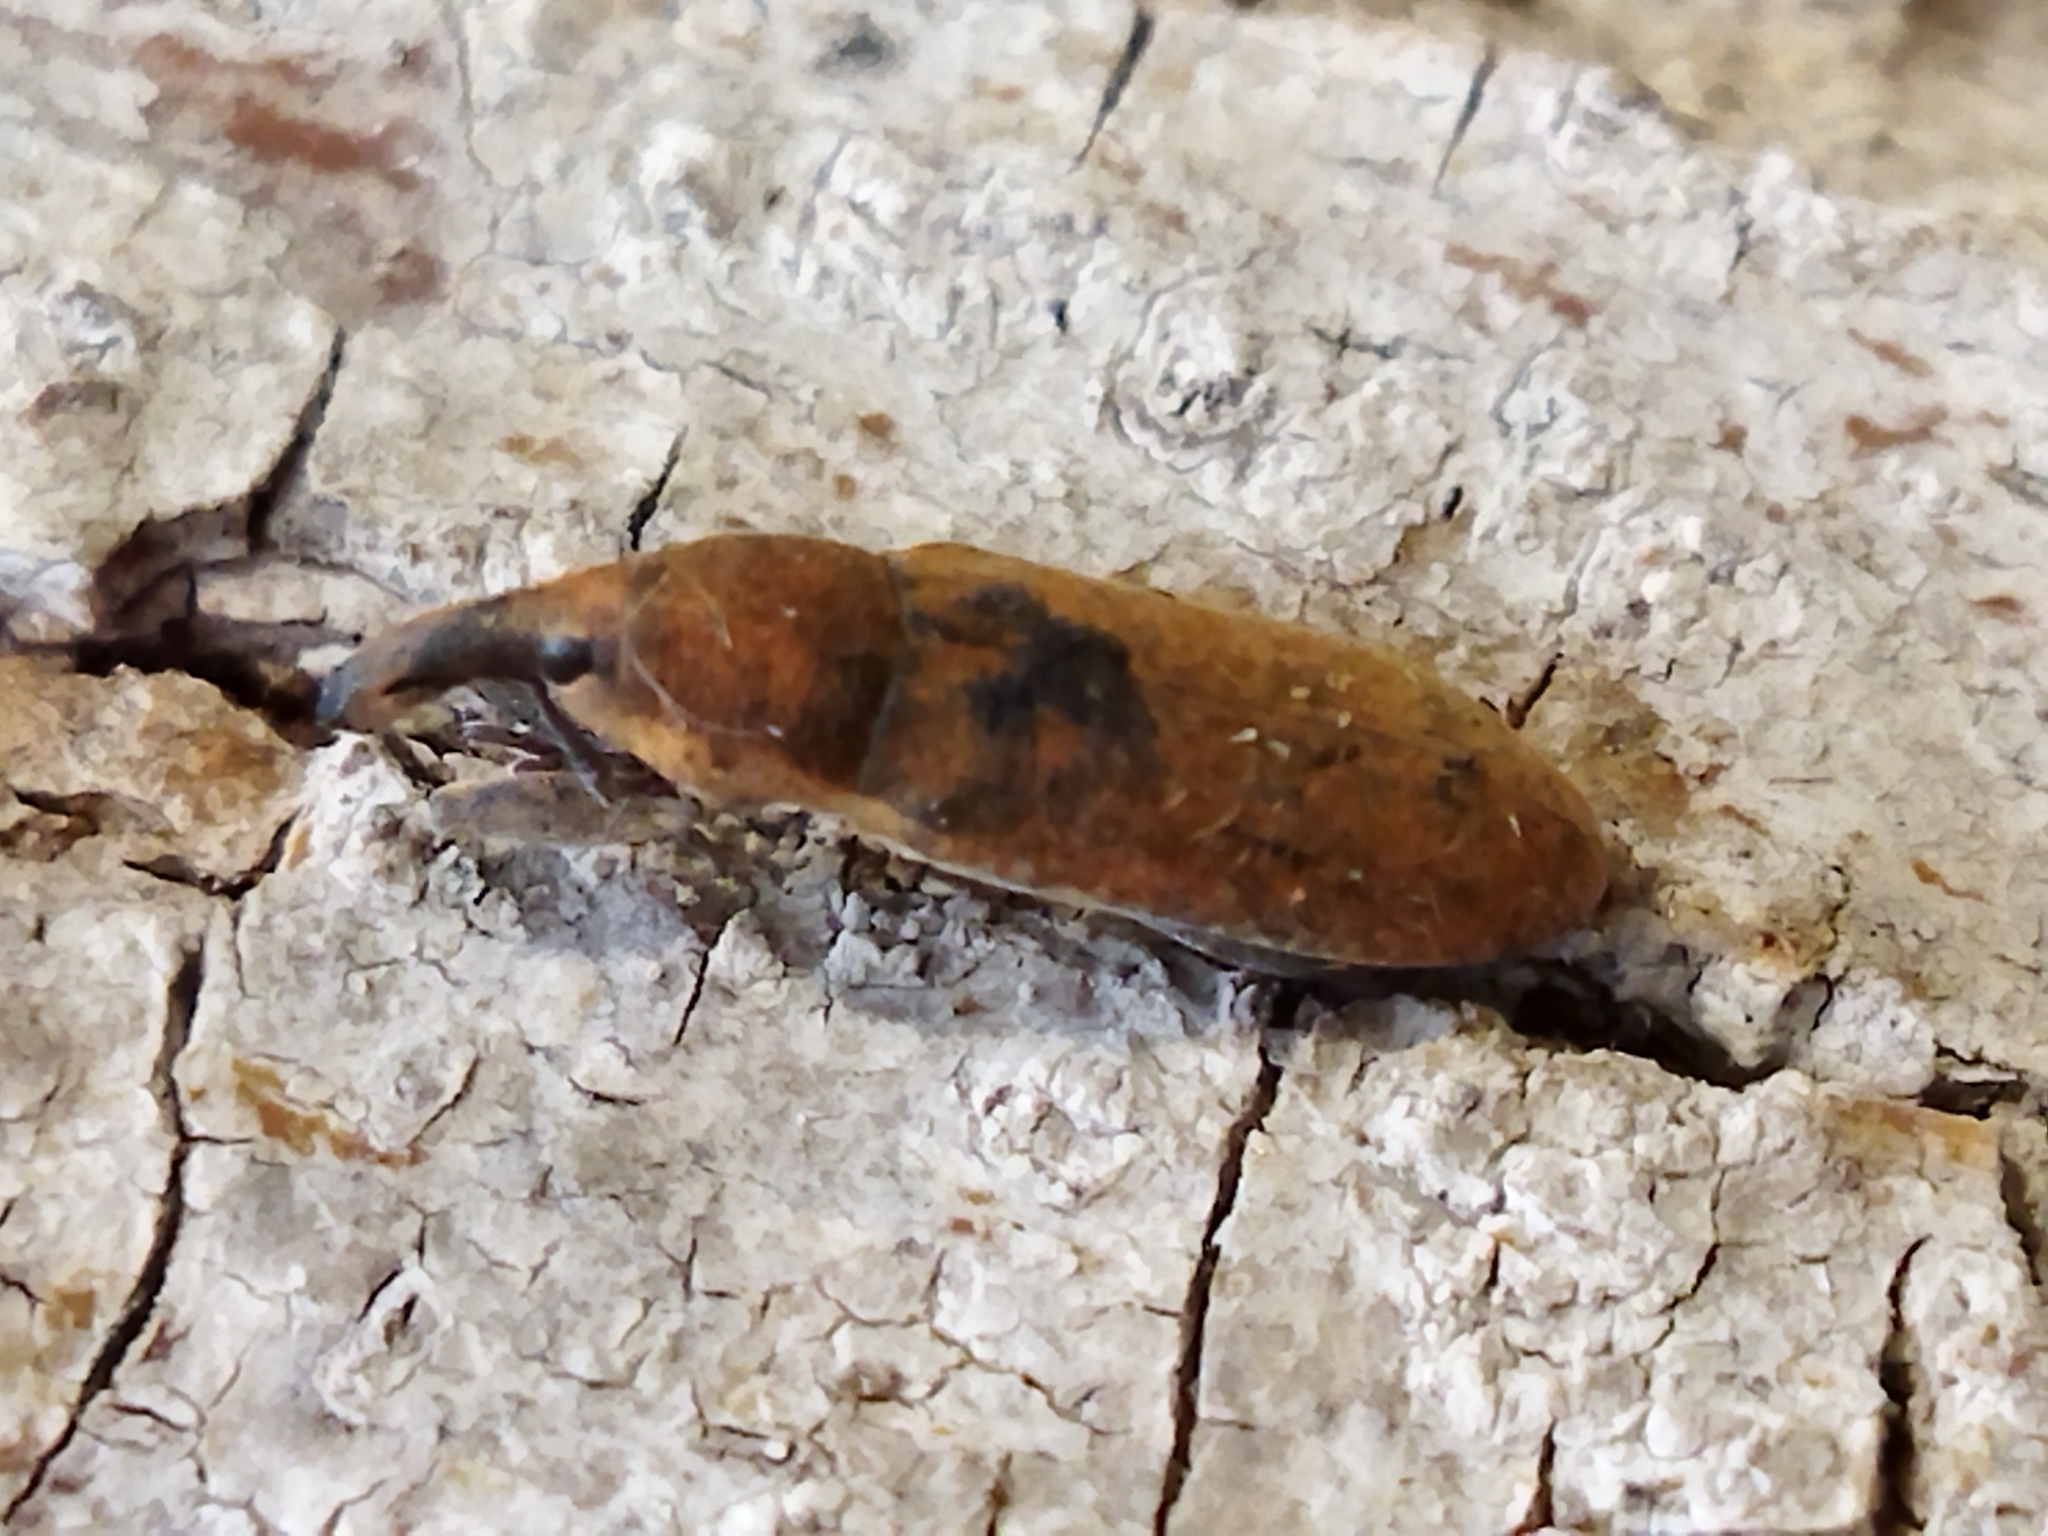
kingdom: Animalia
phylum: Arthropoda
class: Insecta
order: Coleoptera
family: Curculionidae
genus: Lixus
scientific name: Lixus punctiventris
